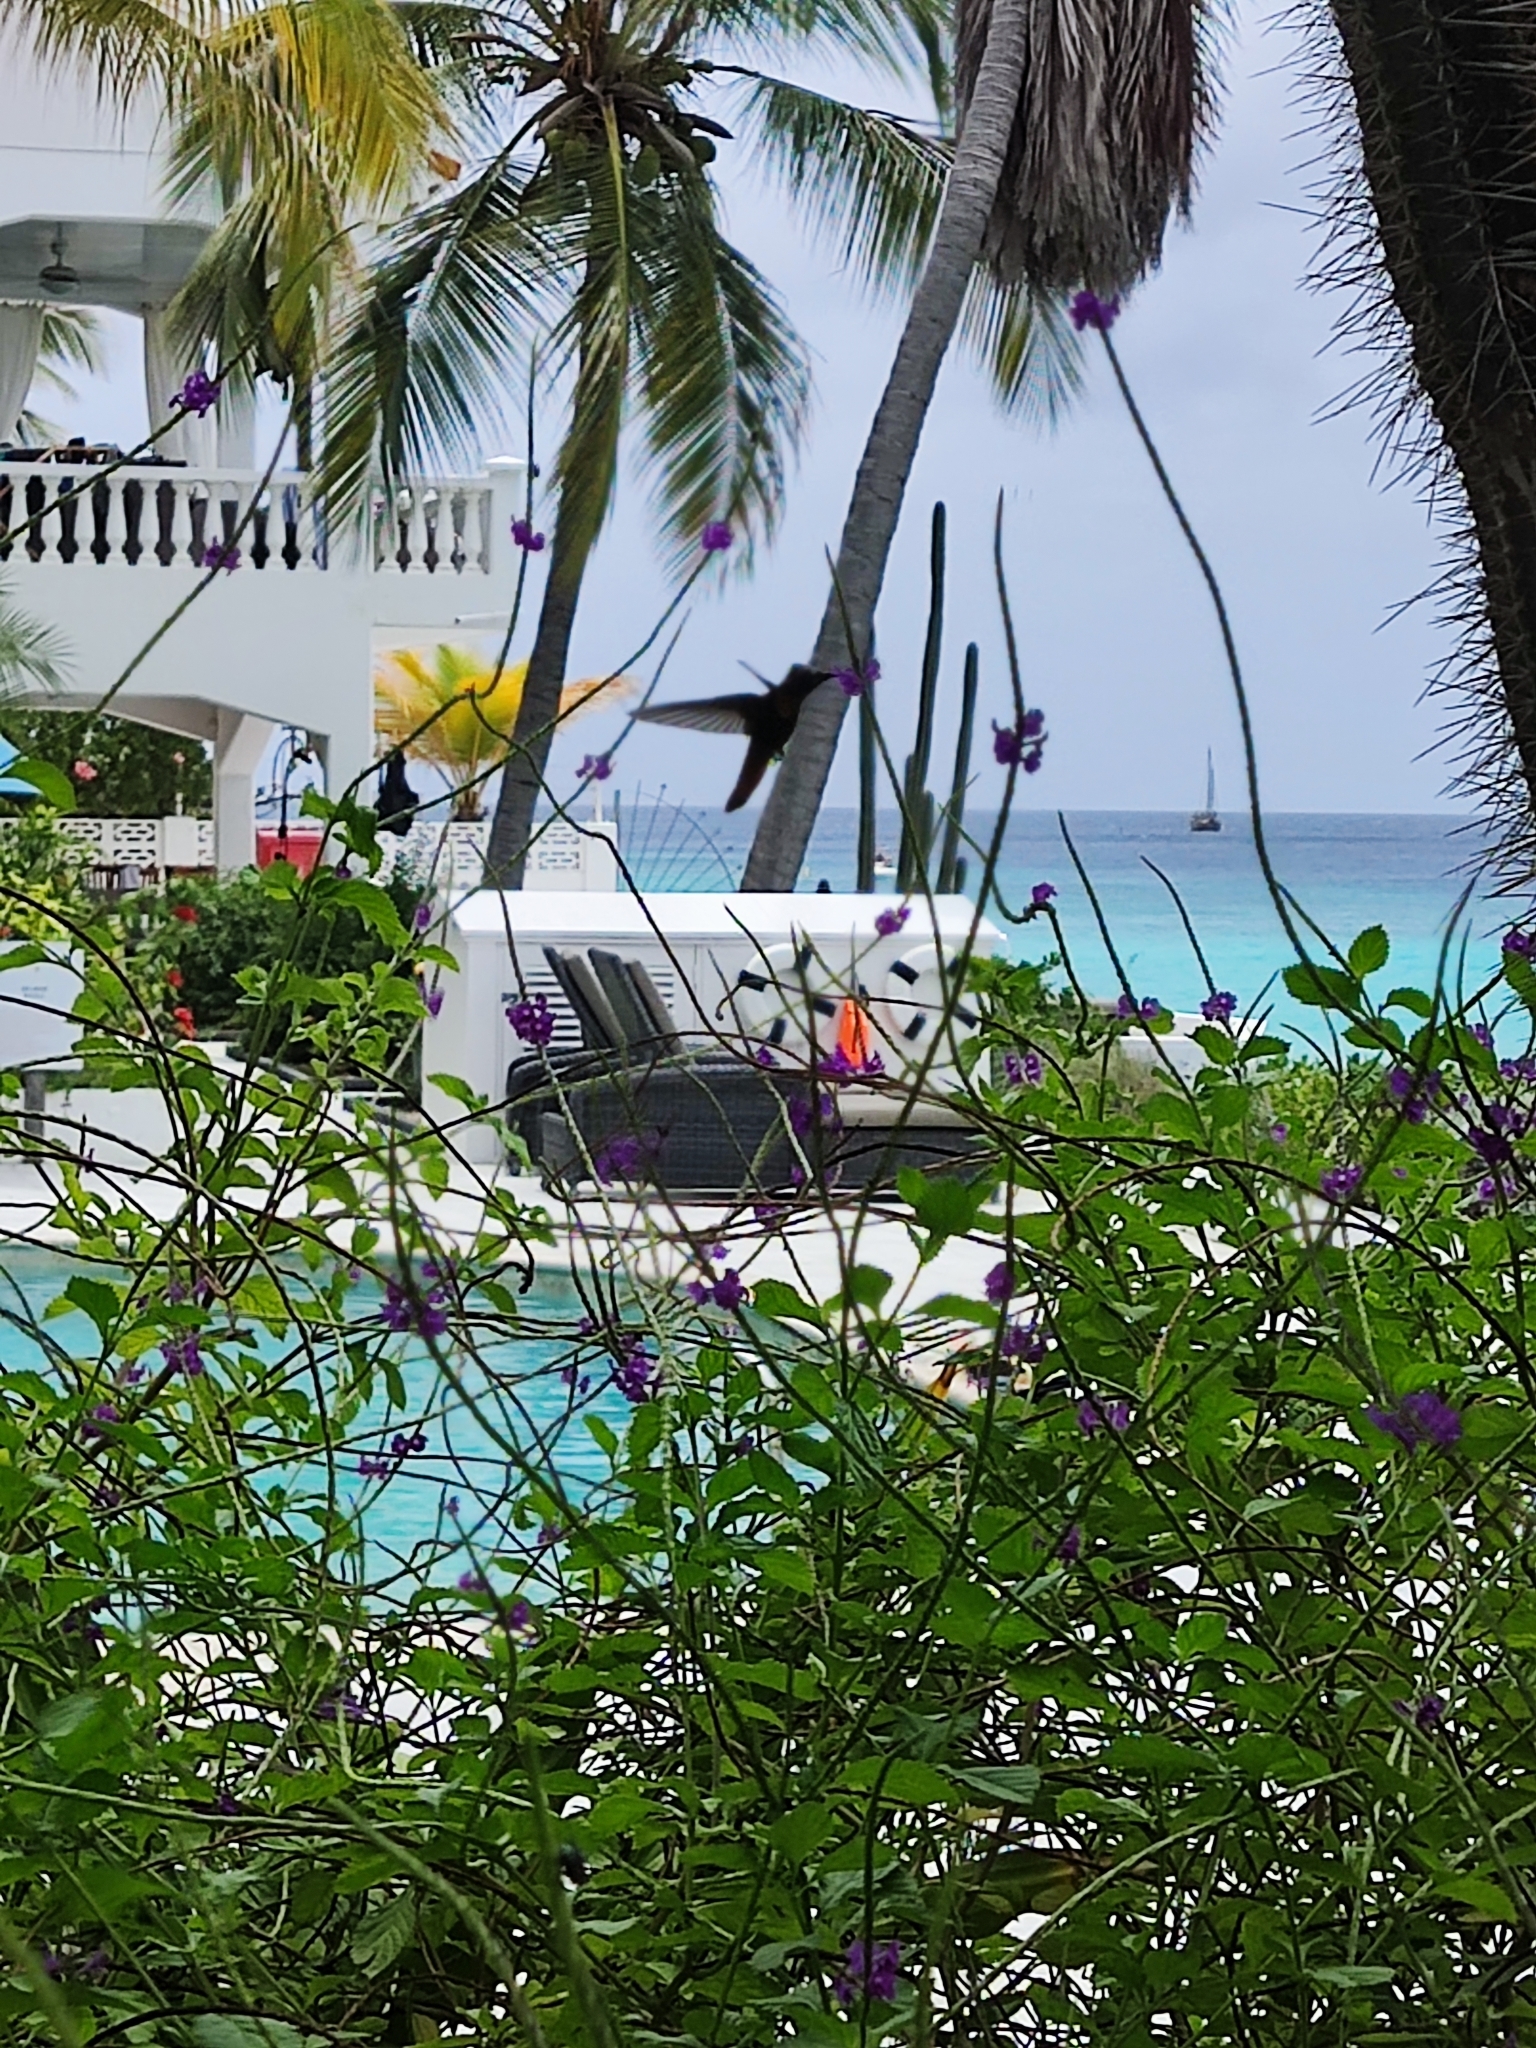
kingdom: Animalia
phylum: Chordata
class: Aves
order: Apodiformes
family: Trochilidae
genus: Chrysolampis
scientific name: Chrysolampis mosquitus
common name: Ruby-topaz hummingbird
